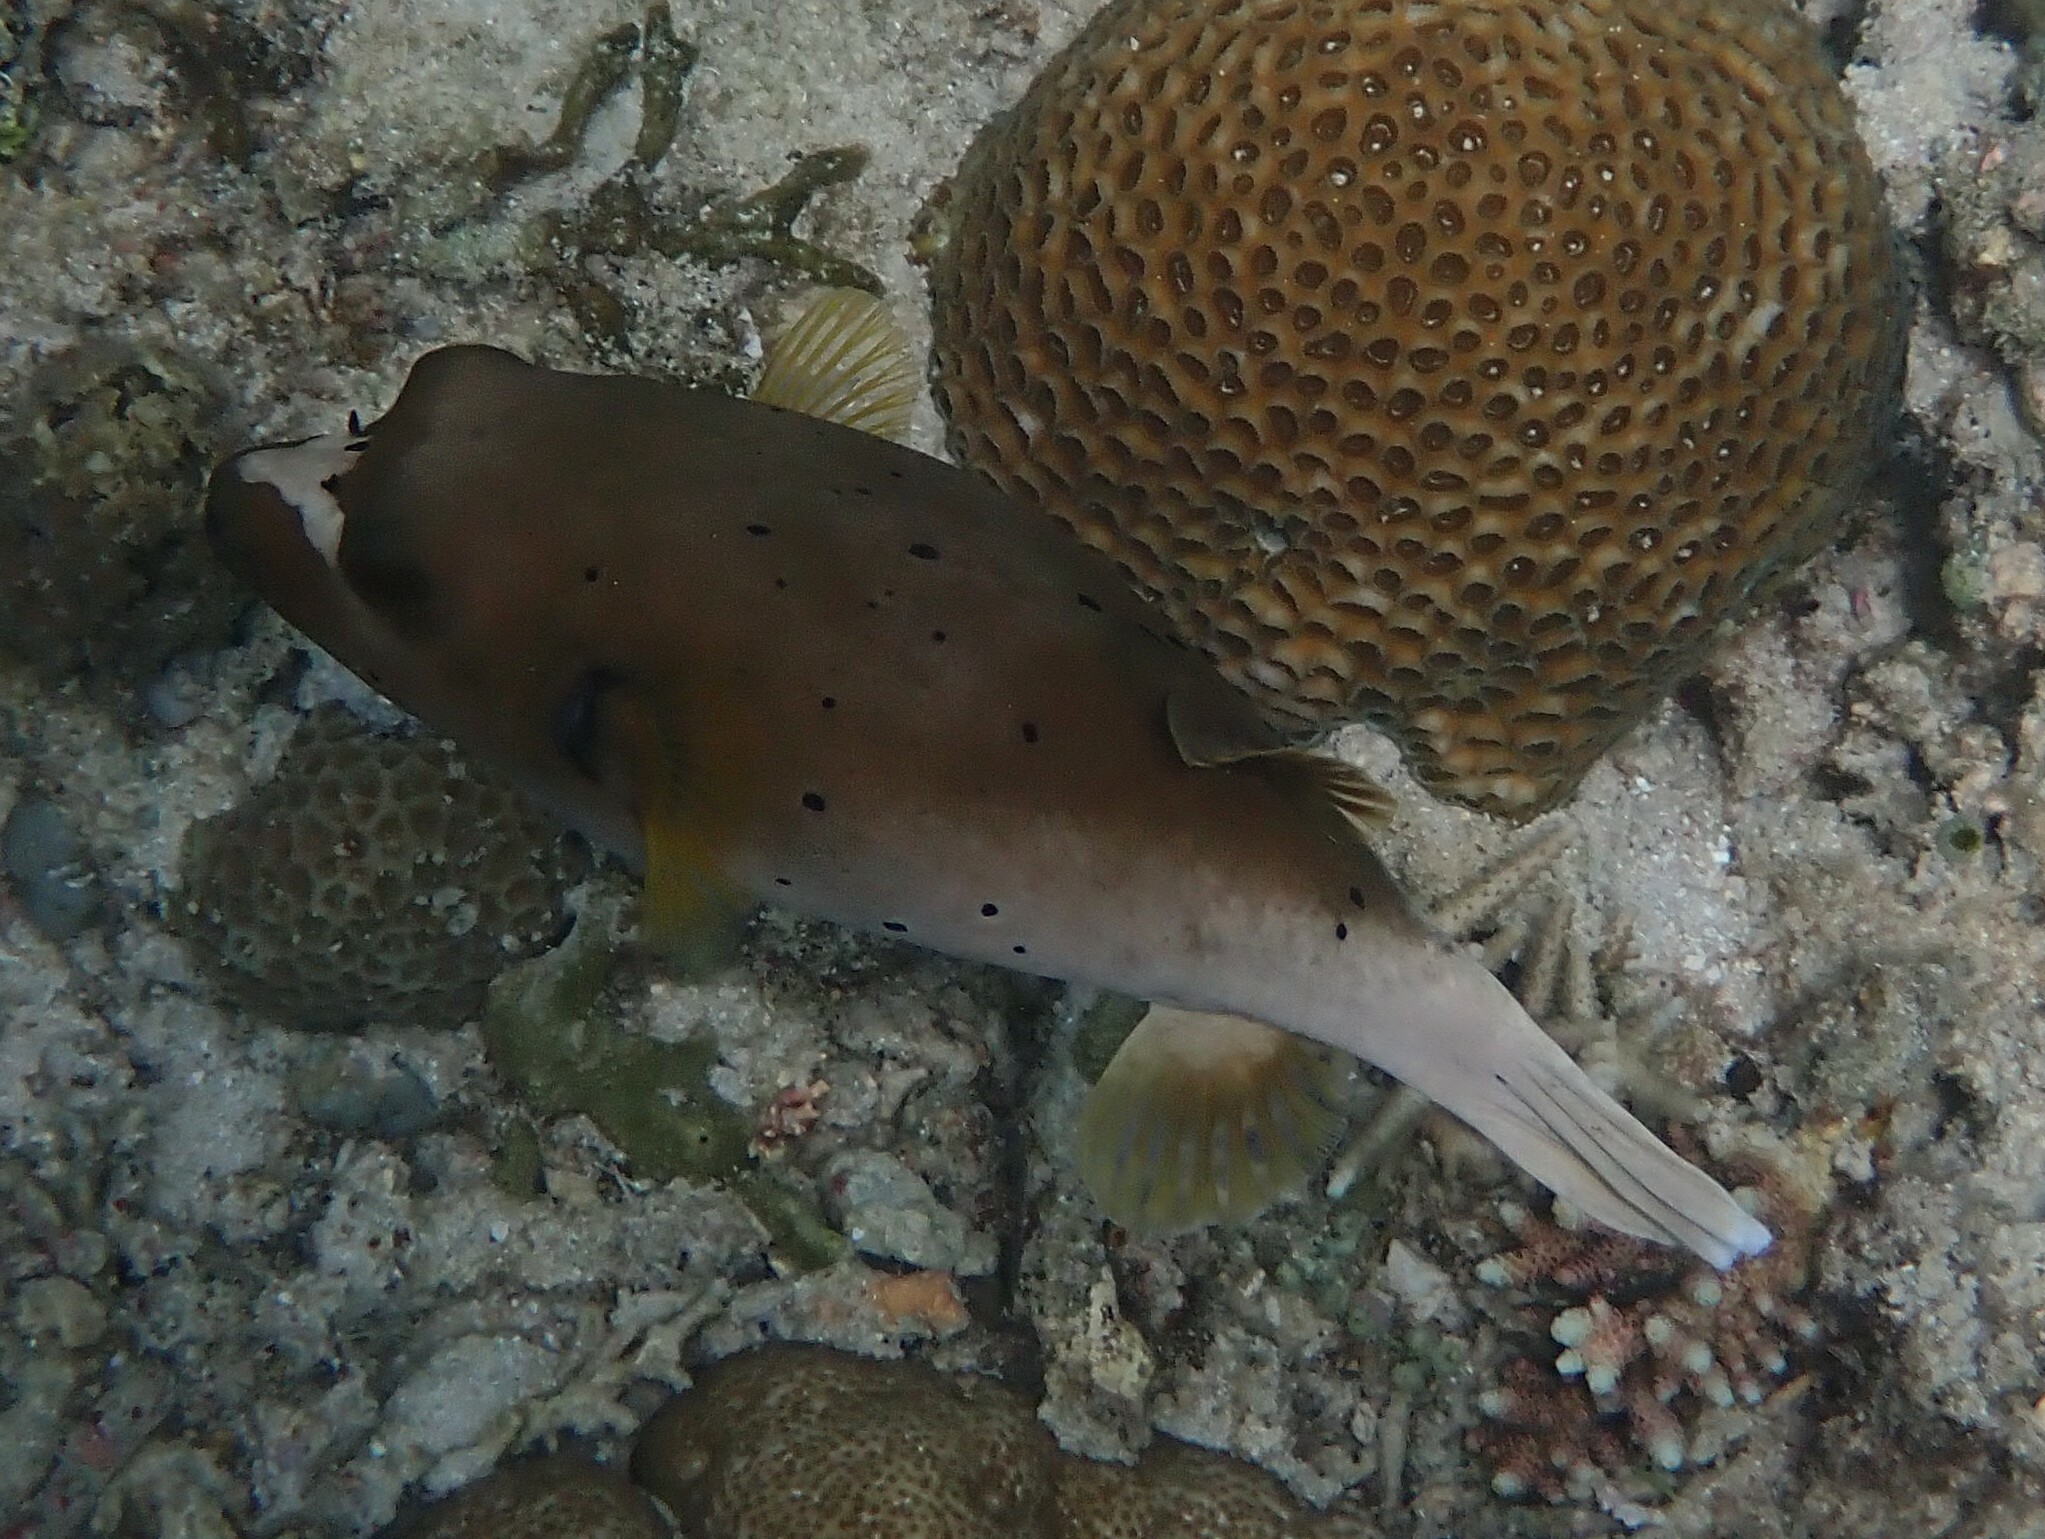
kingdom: Animalia
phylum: Chordata
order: Tetraodontiformes
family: Tetraodontidae
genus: Arothron
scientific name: Arothron nigropunctatus
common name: Black spotted blow fish
